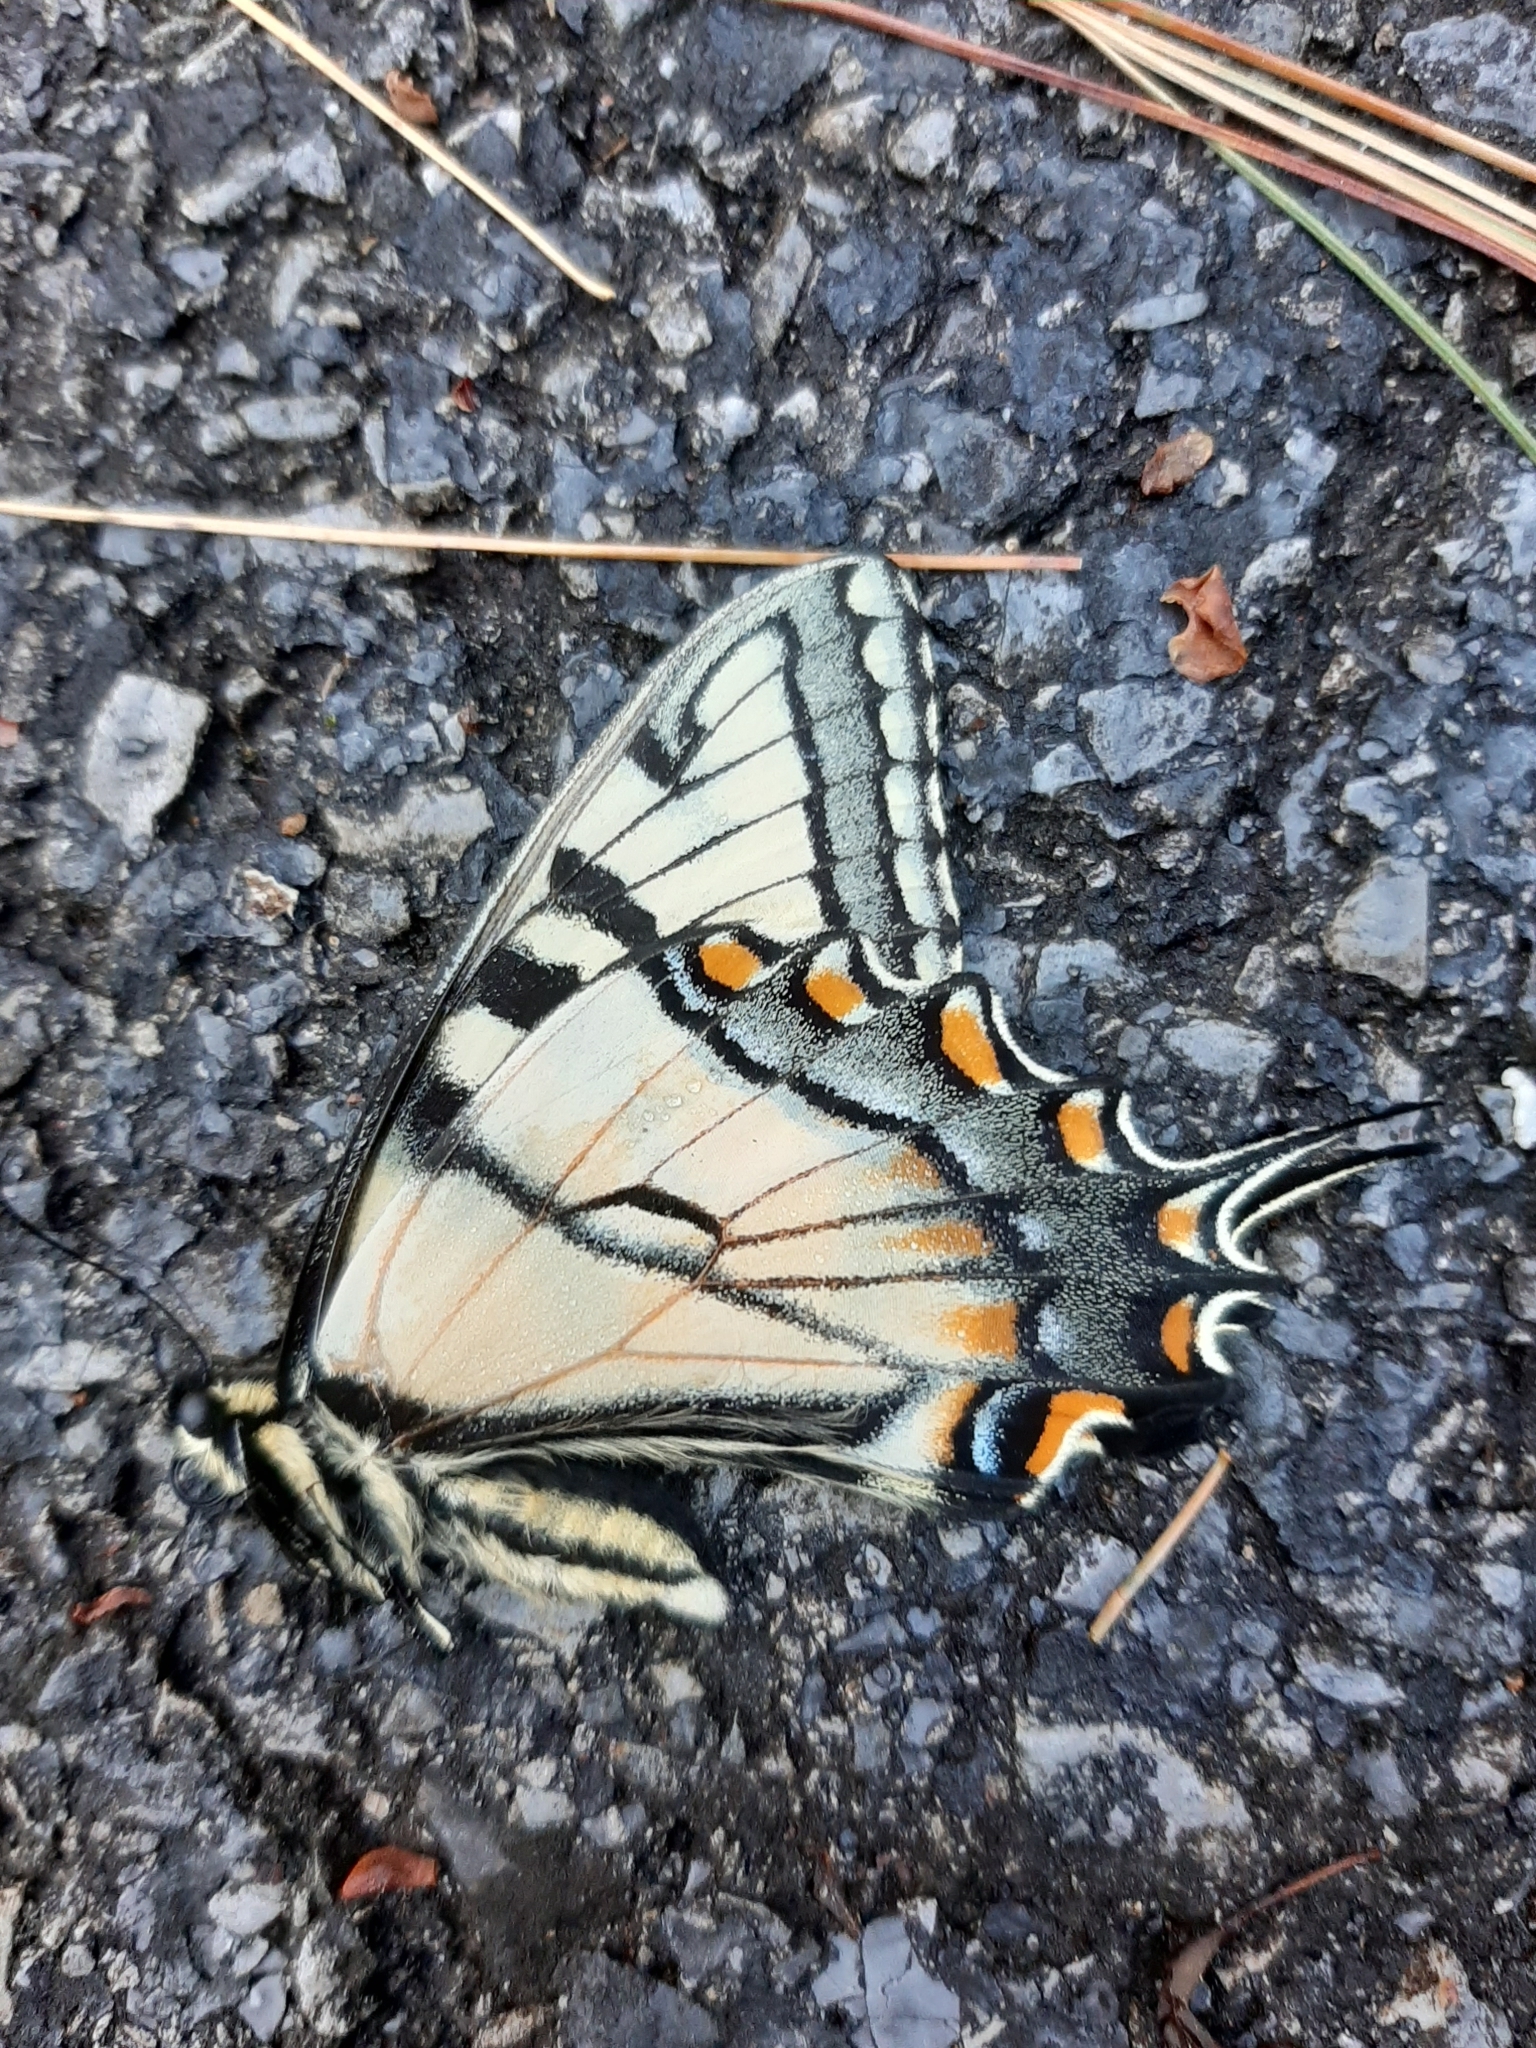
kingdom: Animalia
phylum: Arthropoda
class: Insecta
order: Lepidoptera
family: Papilionidae
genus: Papilio
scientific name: Papilio glaucus
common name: Tiger swallowtail
